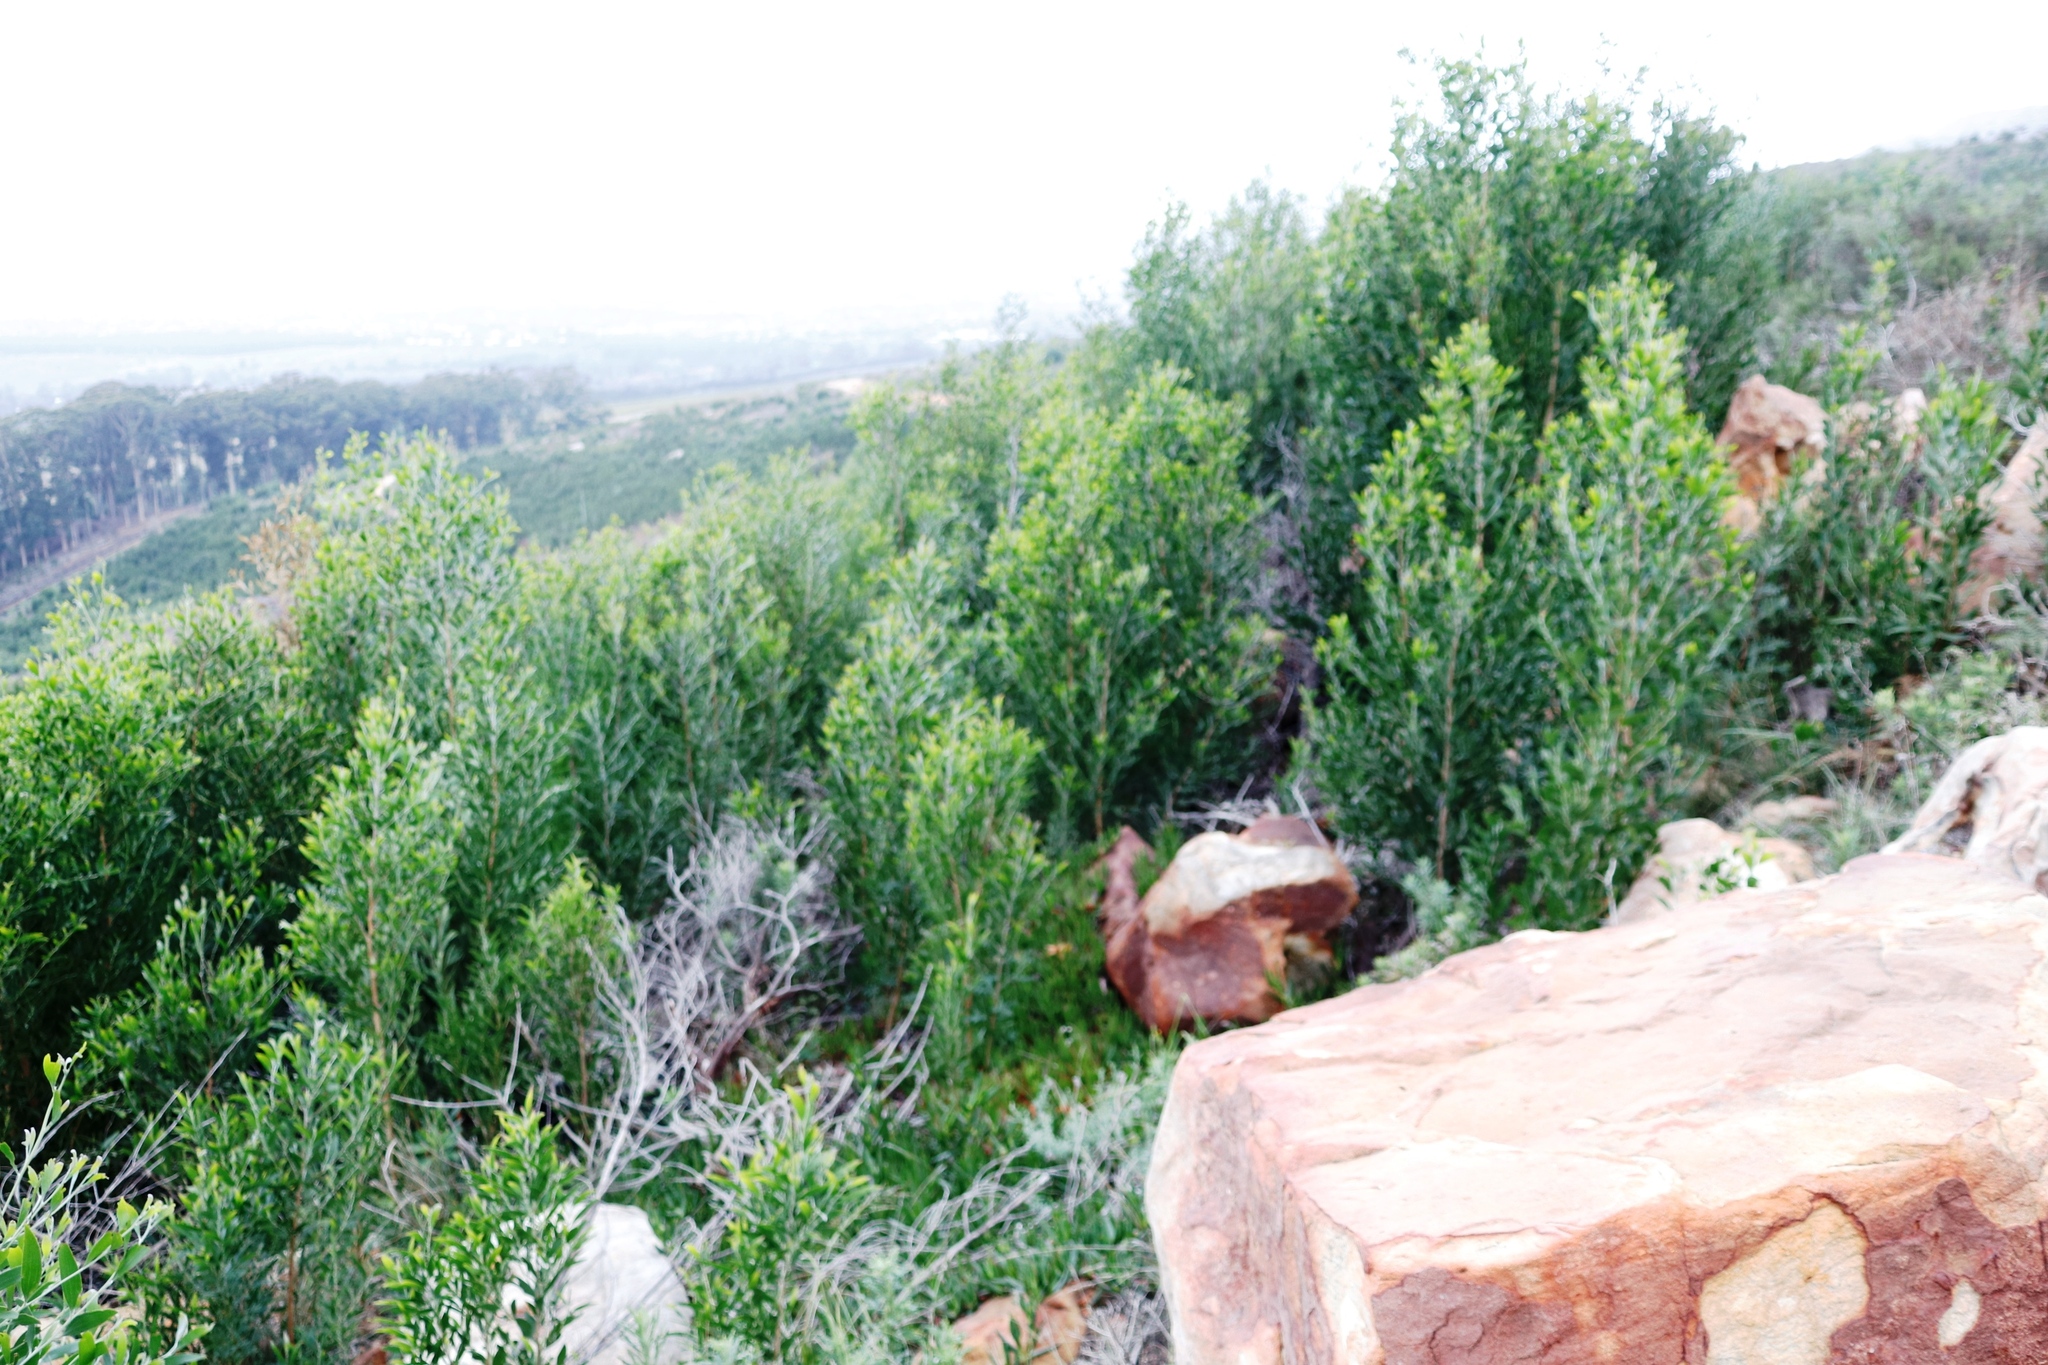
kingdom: Plantae
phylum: Tracheophyta
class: Magnoliopsida
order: Fabales
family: Fabaceae
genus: Acacia
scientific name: Acacia melanoxylon
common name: Blackwood
